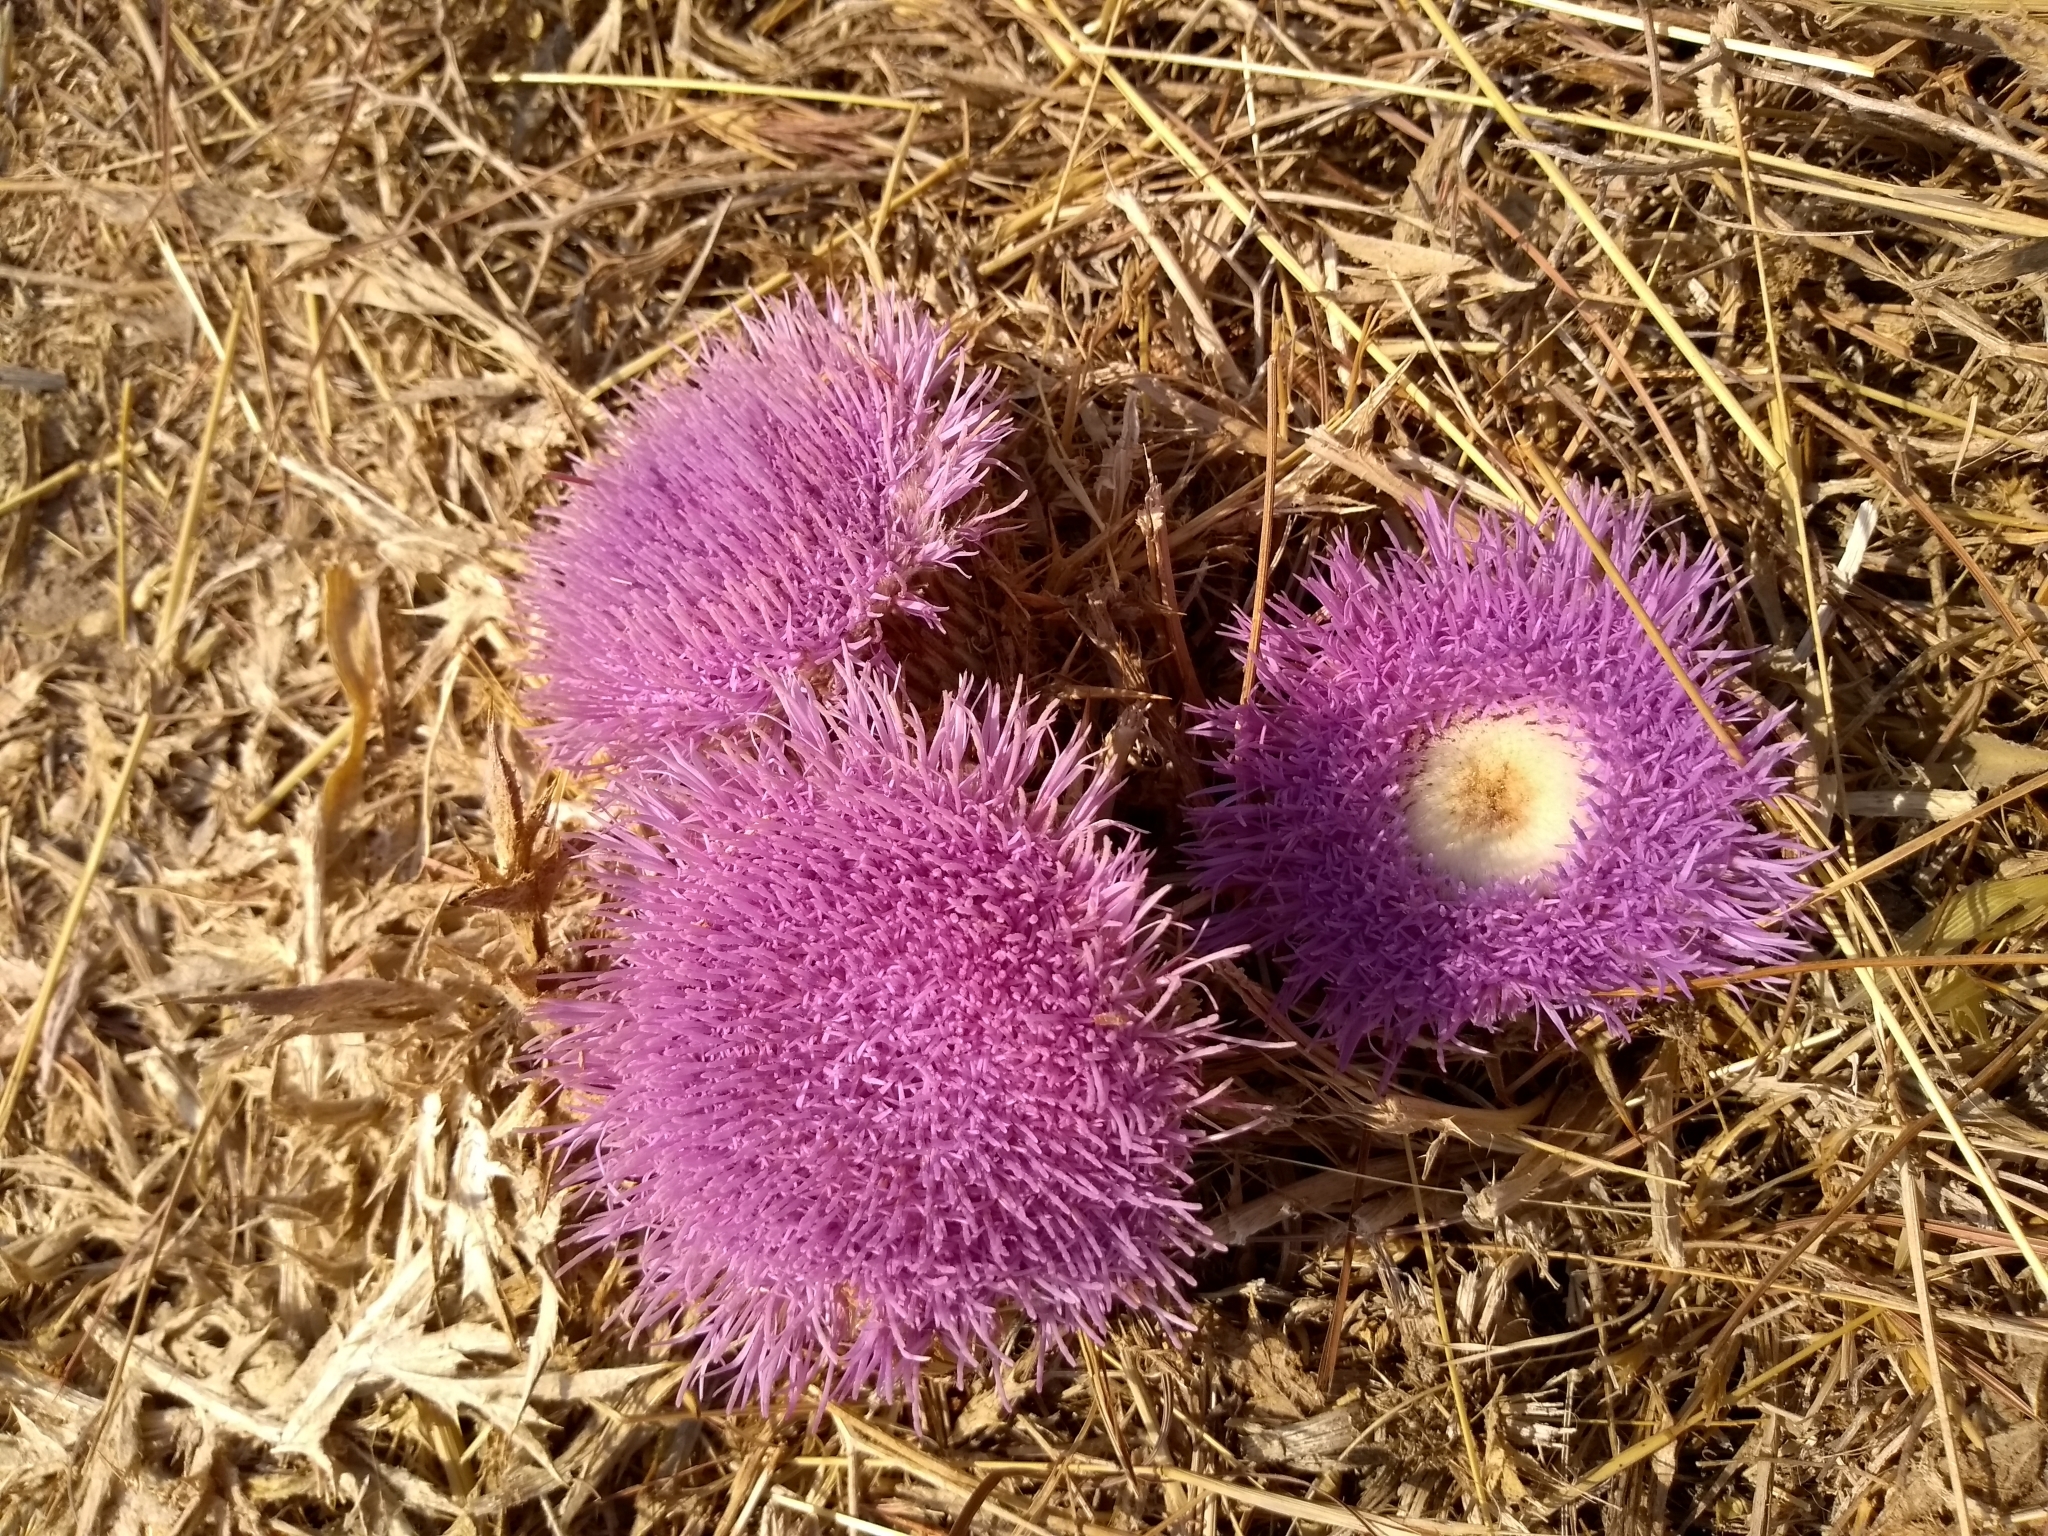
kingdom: Plantae
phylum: Tracheophyta
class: Magnoliopsida
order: Asterales
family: Asteraceae
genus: Chamaeleon
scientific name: Chamaeleon gummifer
